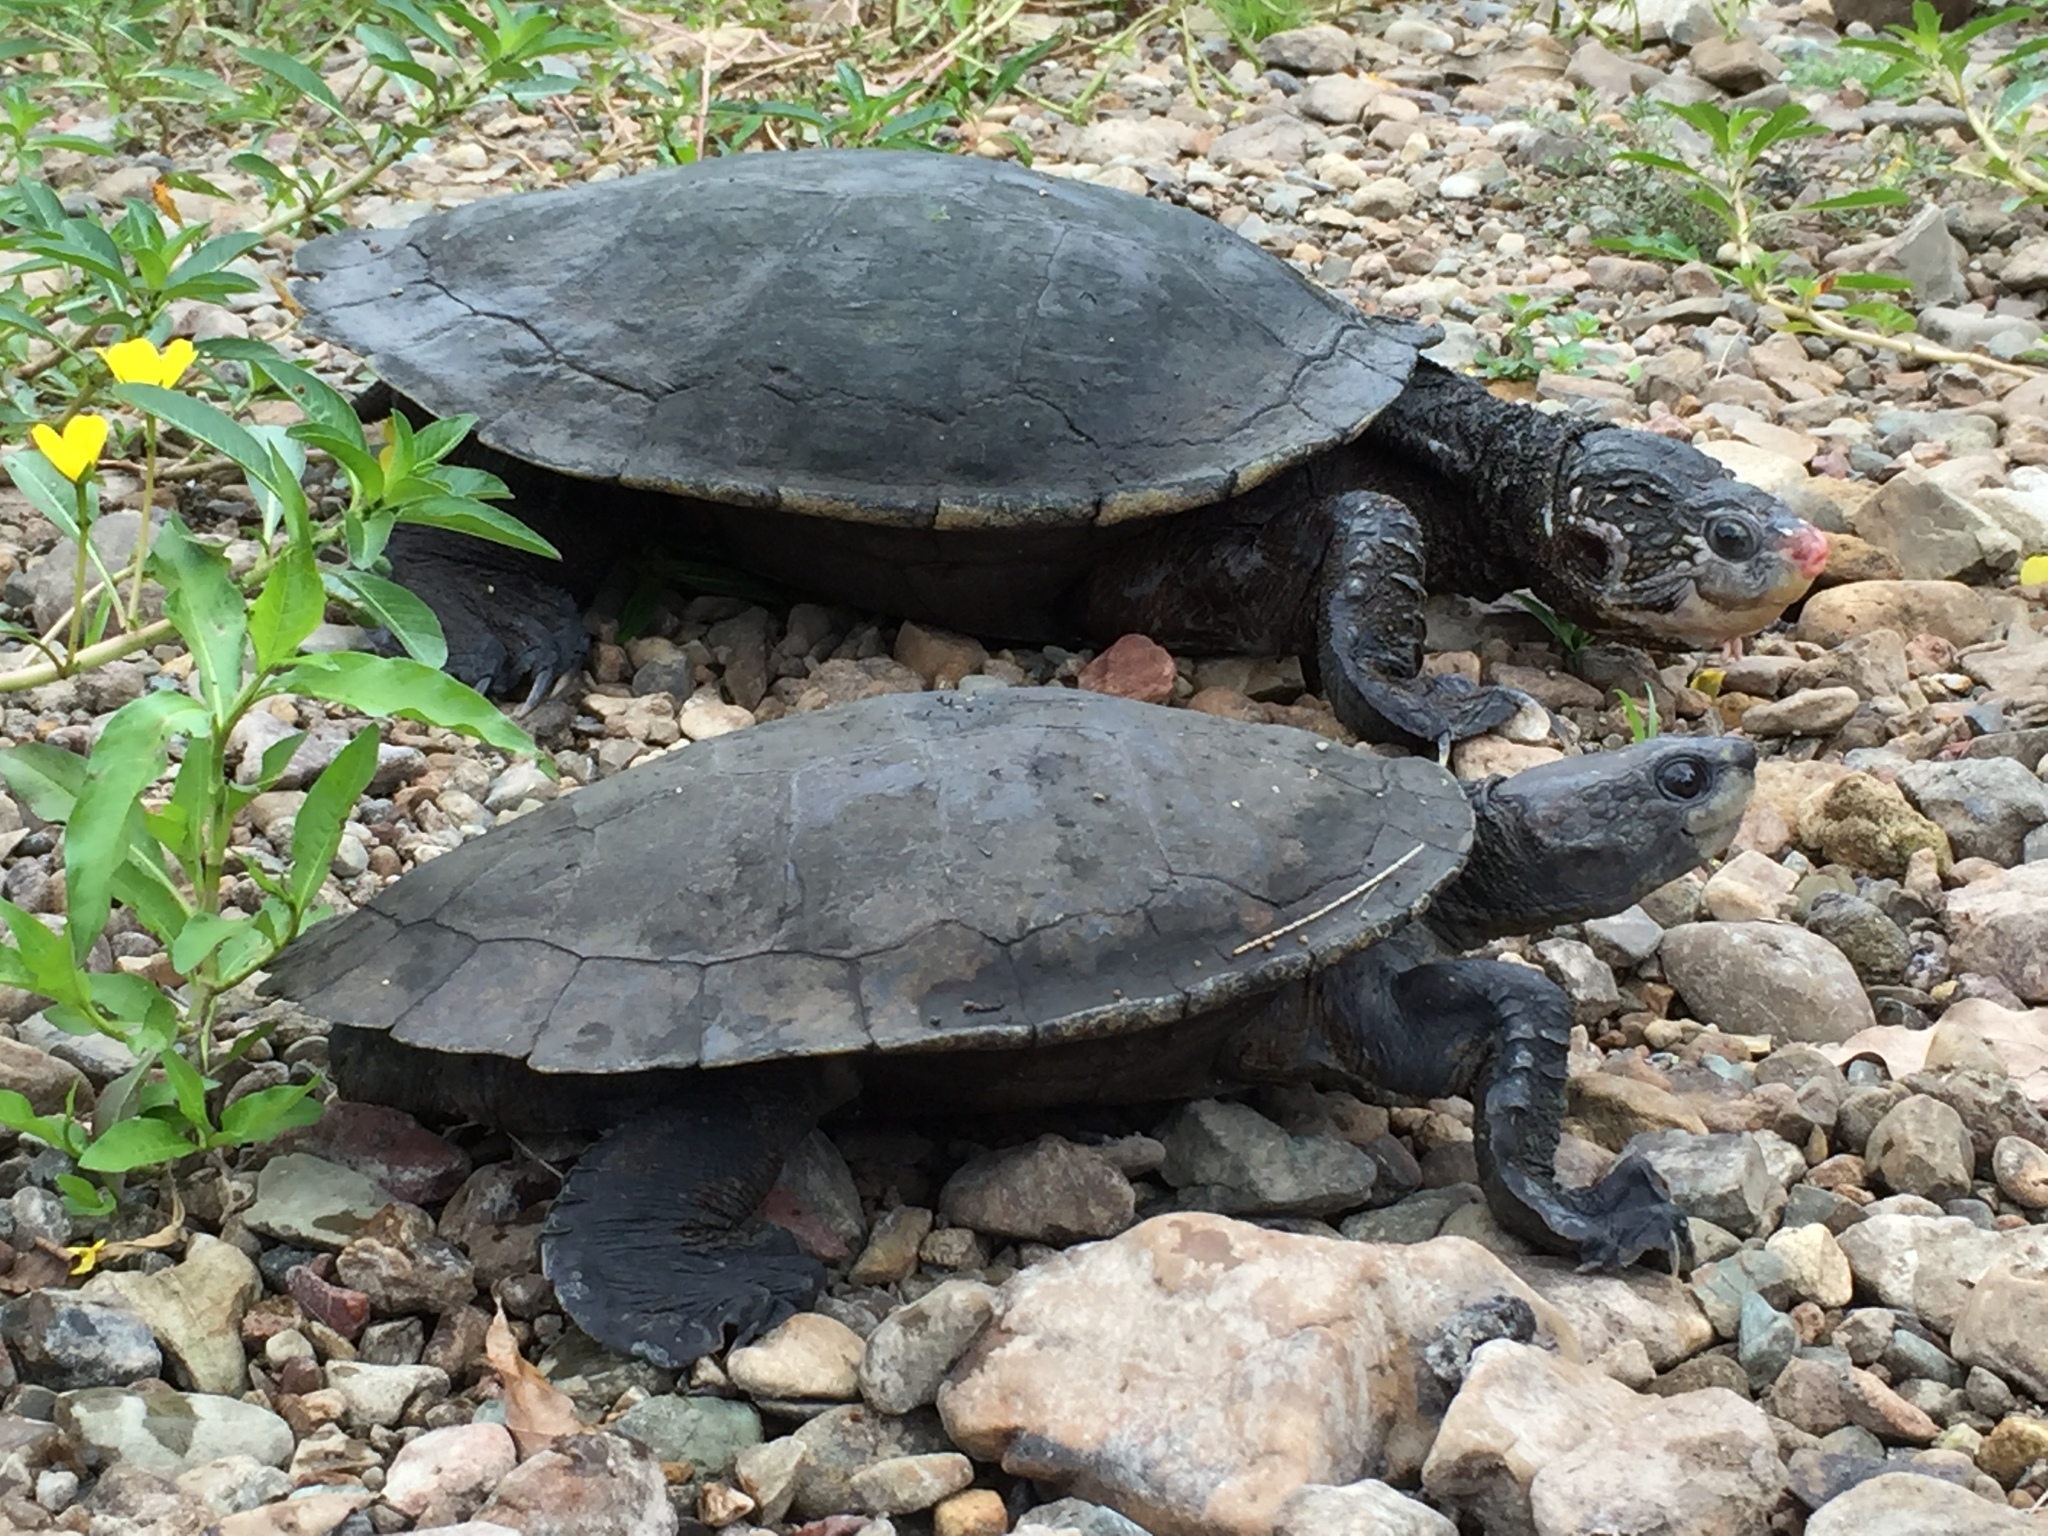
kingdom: Animalia
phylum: Chordata
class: Testudines
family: Chelidae
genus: Elseya
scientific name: Elseya albagula
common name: White-throated snapping turtle
